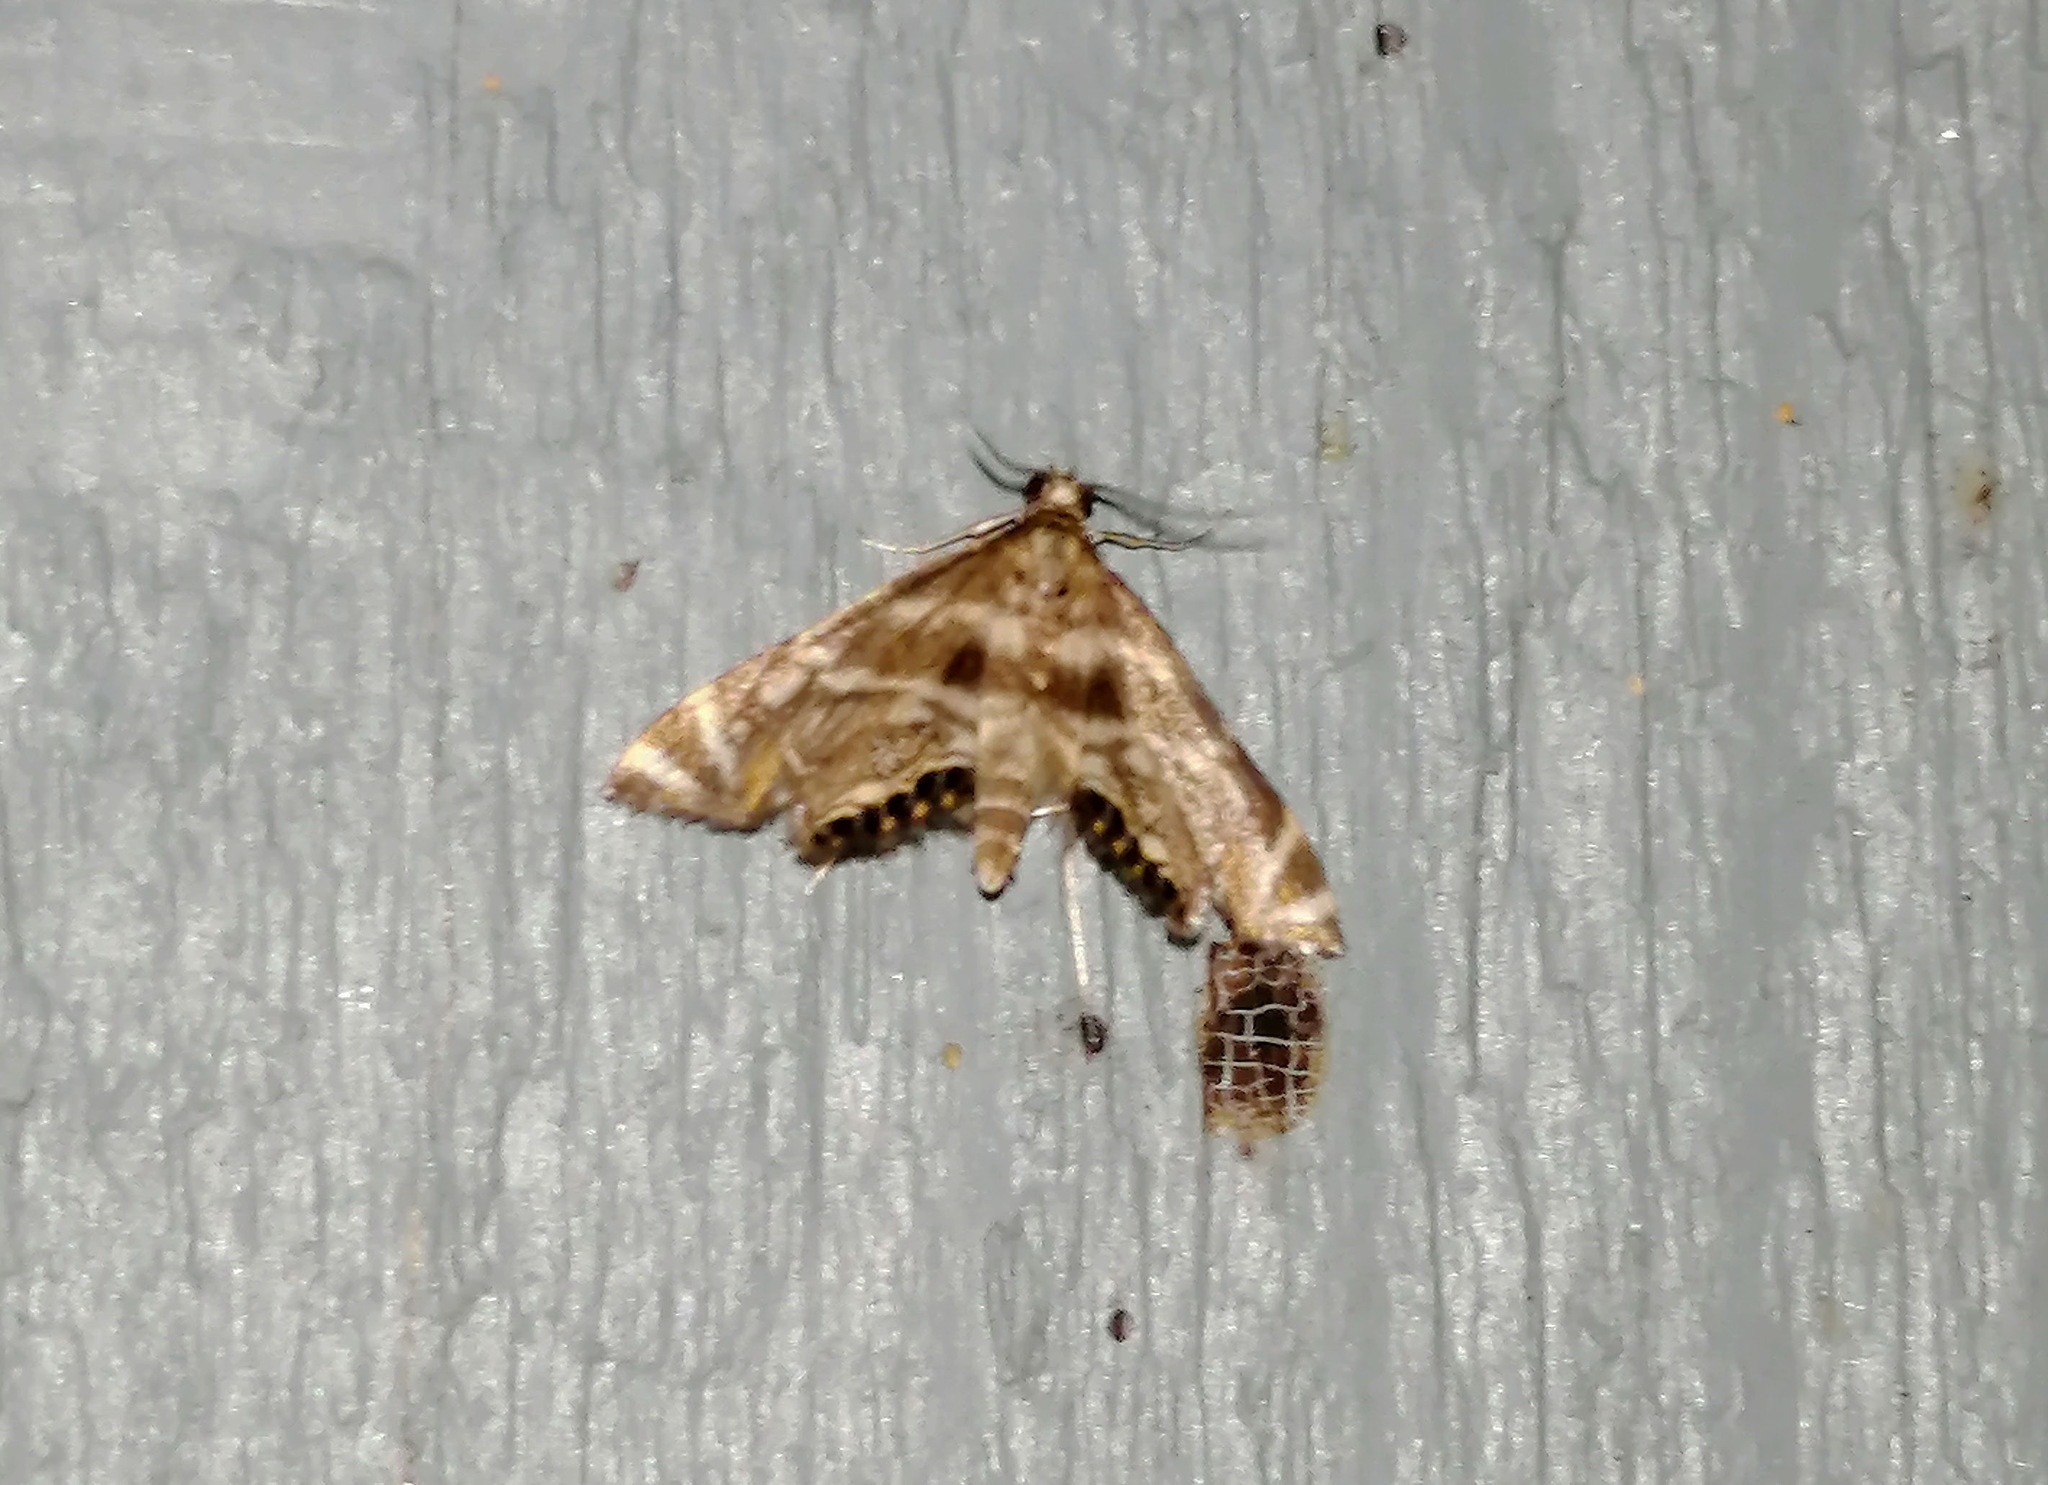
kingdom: Animalia
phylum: Arthropoda
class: Insecta
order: Lepidoptera
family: Crambidae
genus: Petrophila
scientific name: Petrophila canadensis
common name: Canadian petrophila
